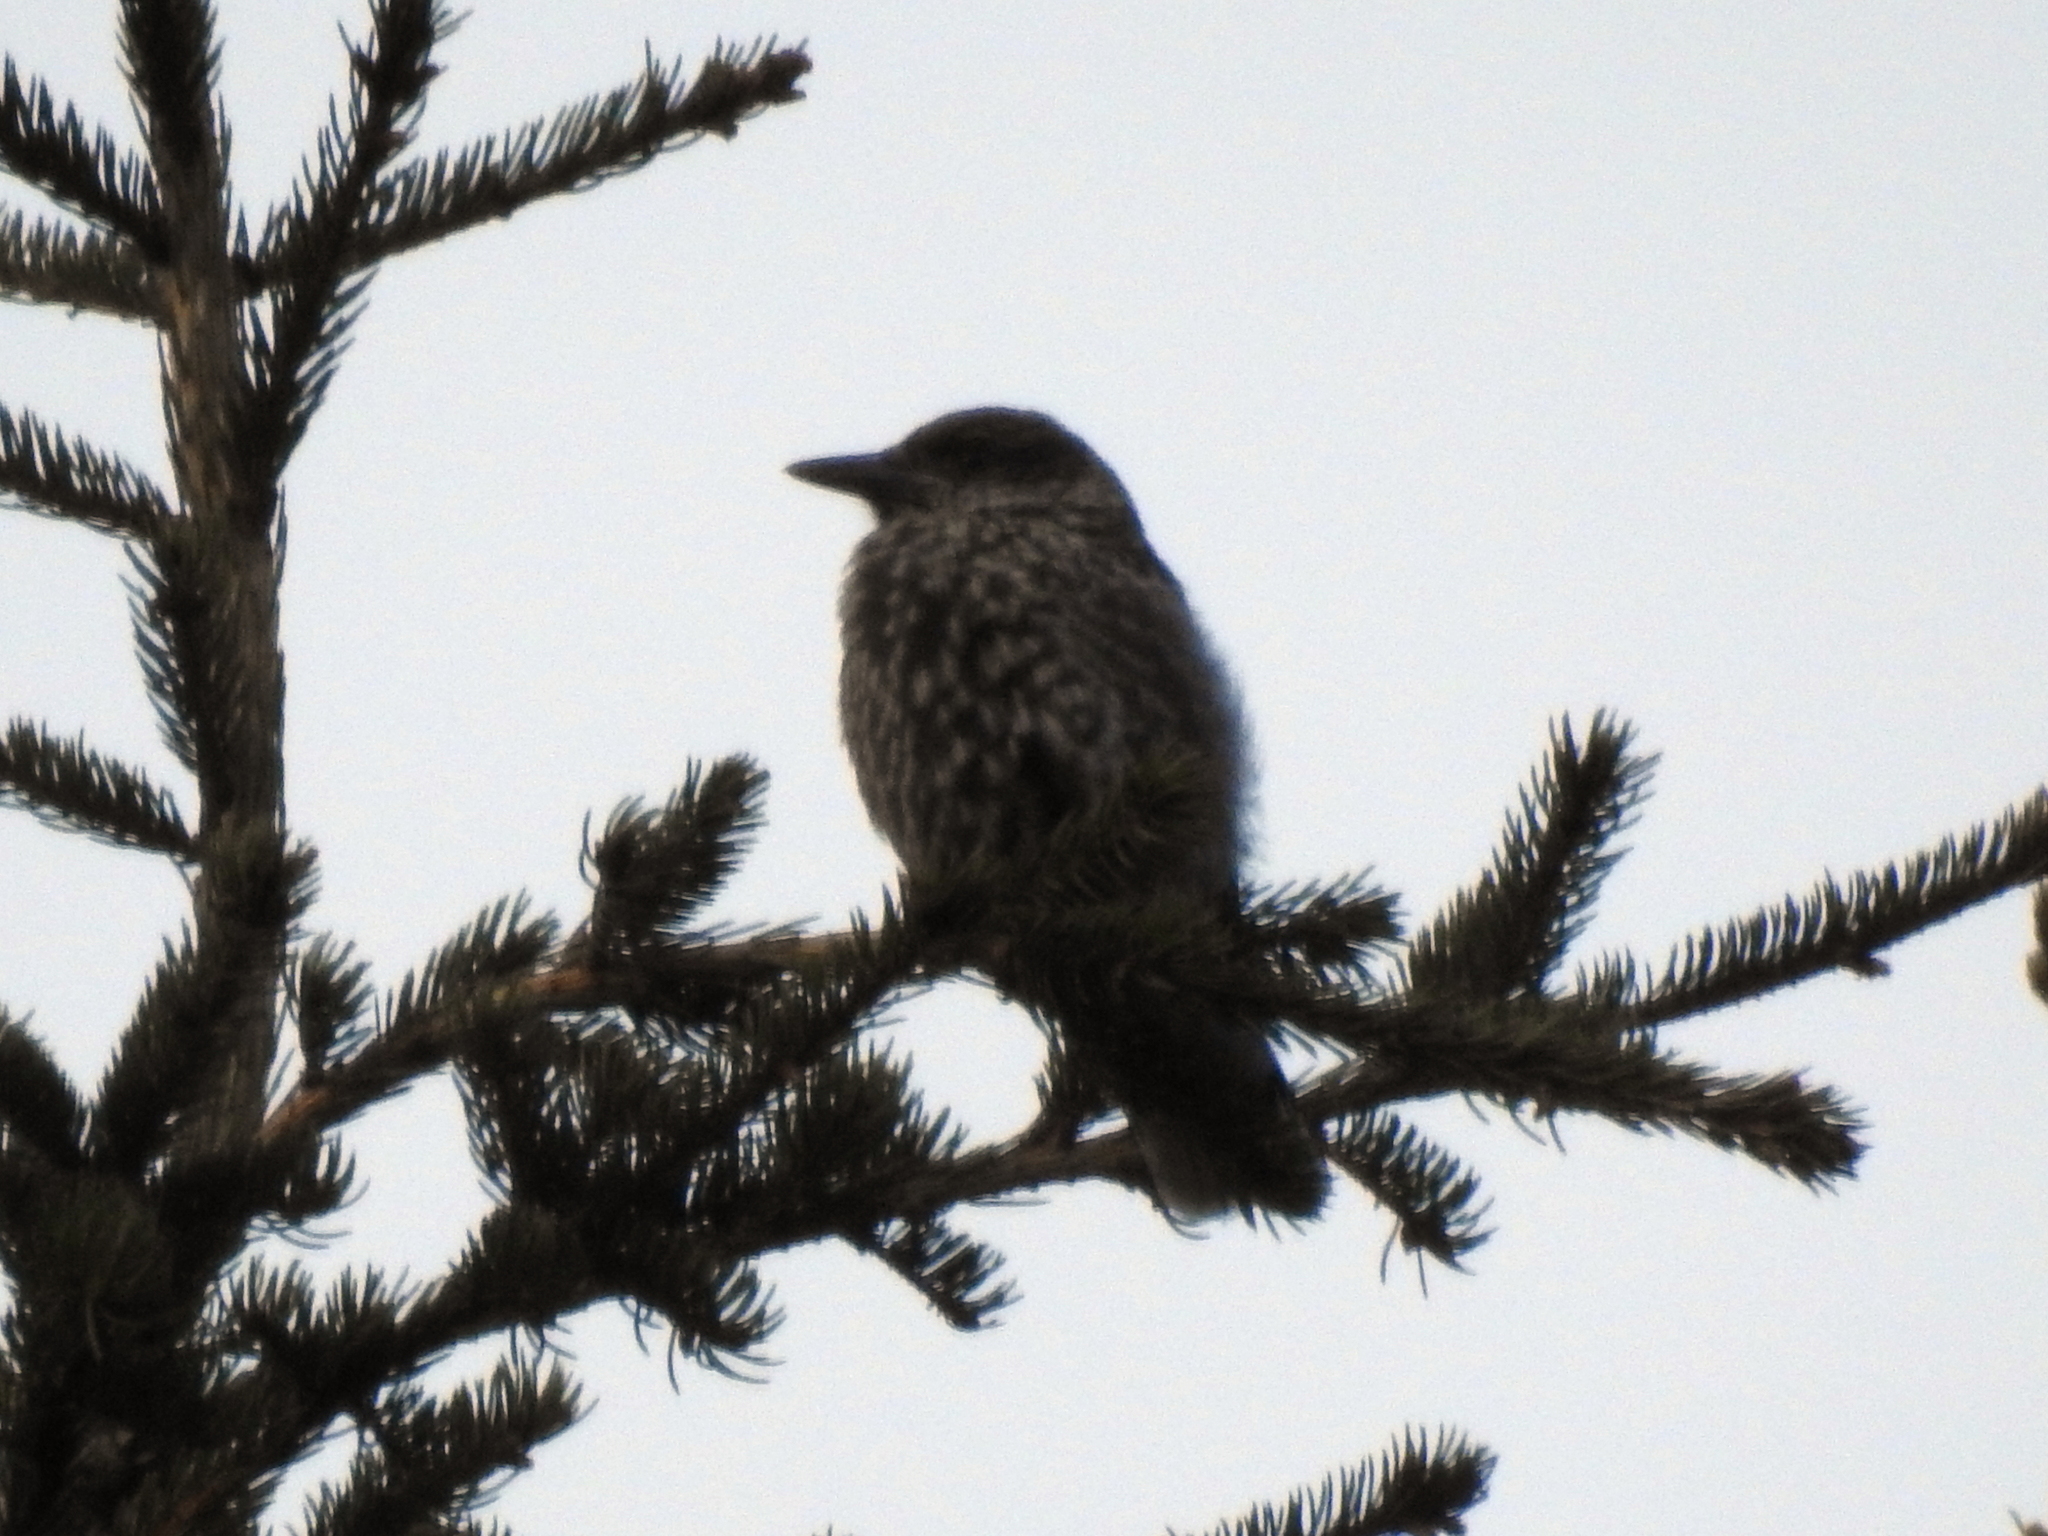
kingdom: Animalia
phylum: Chordata
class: Aves
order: Passeriformes
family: Corvidae
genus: Nucifraga
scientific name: Nucifraga caryocatactes
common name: Spotted nutcracker
